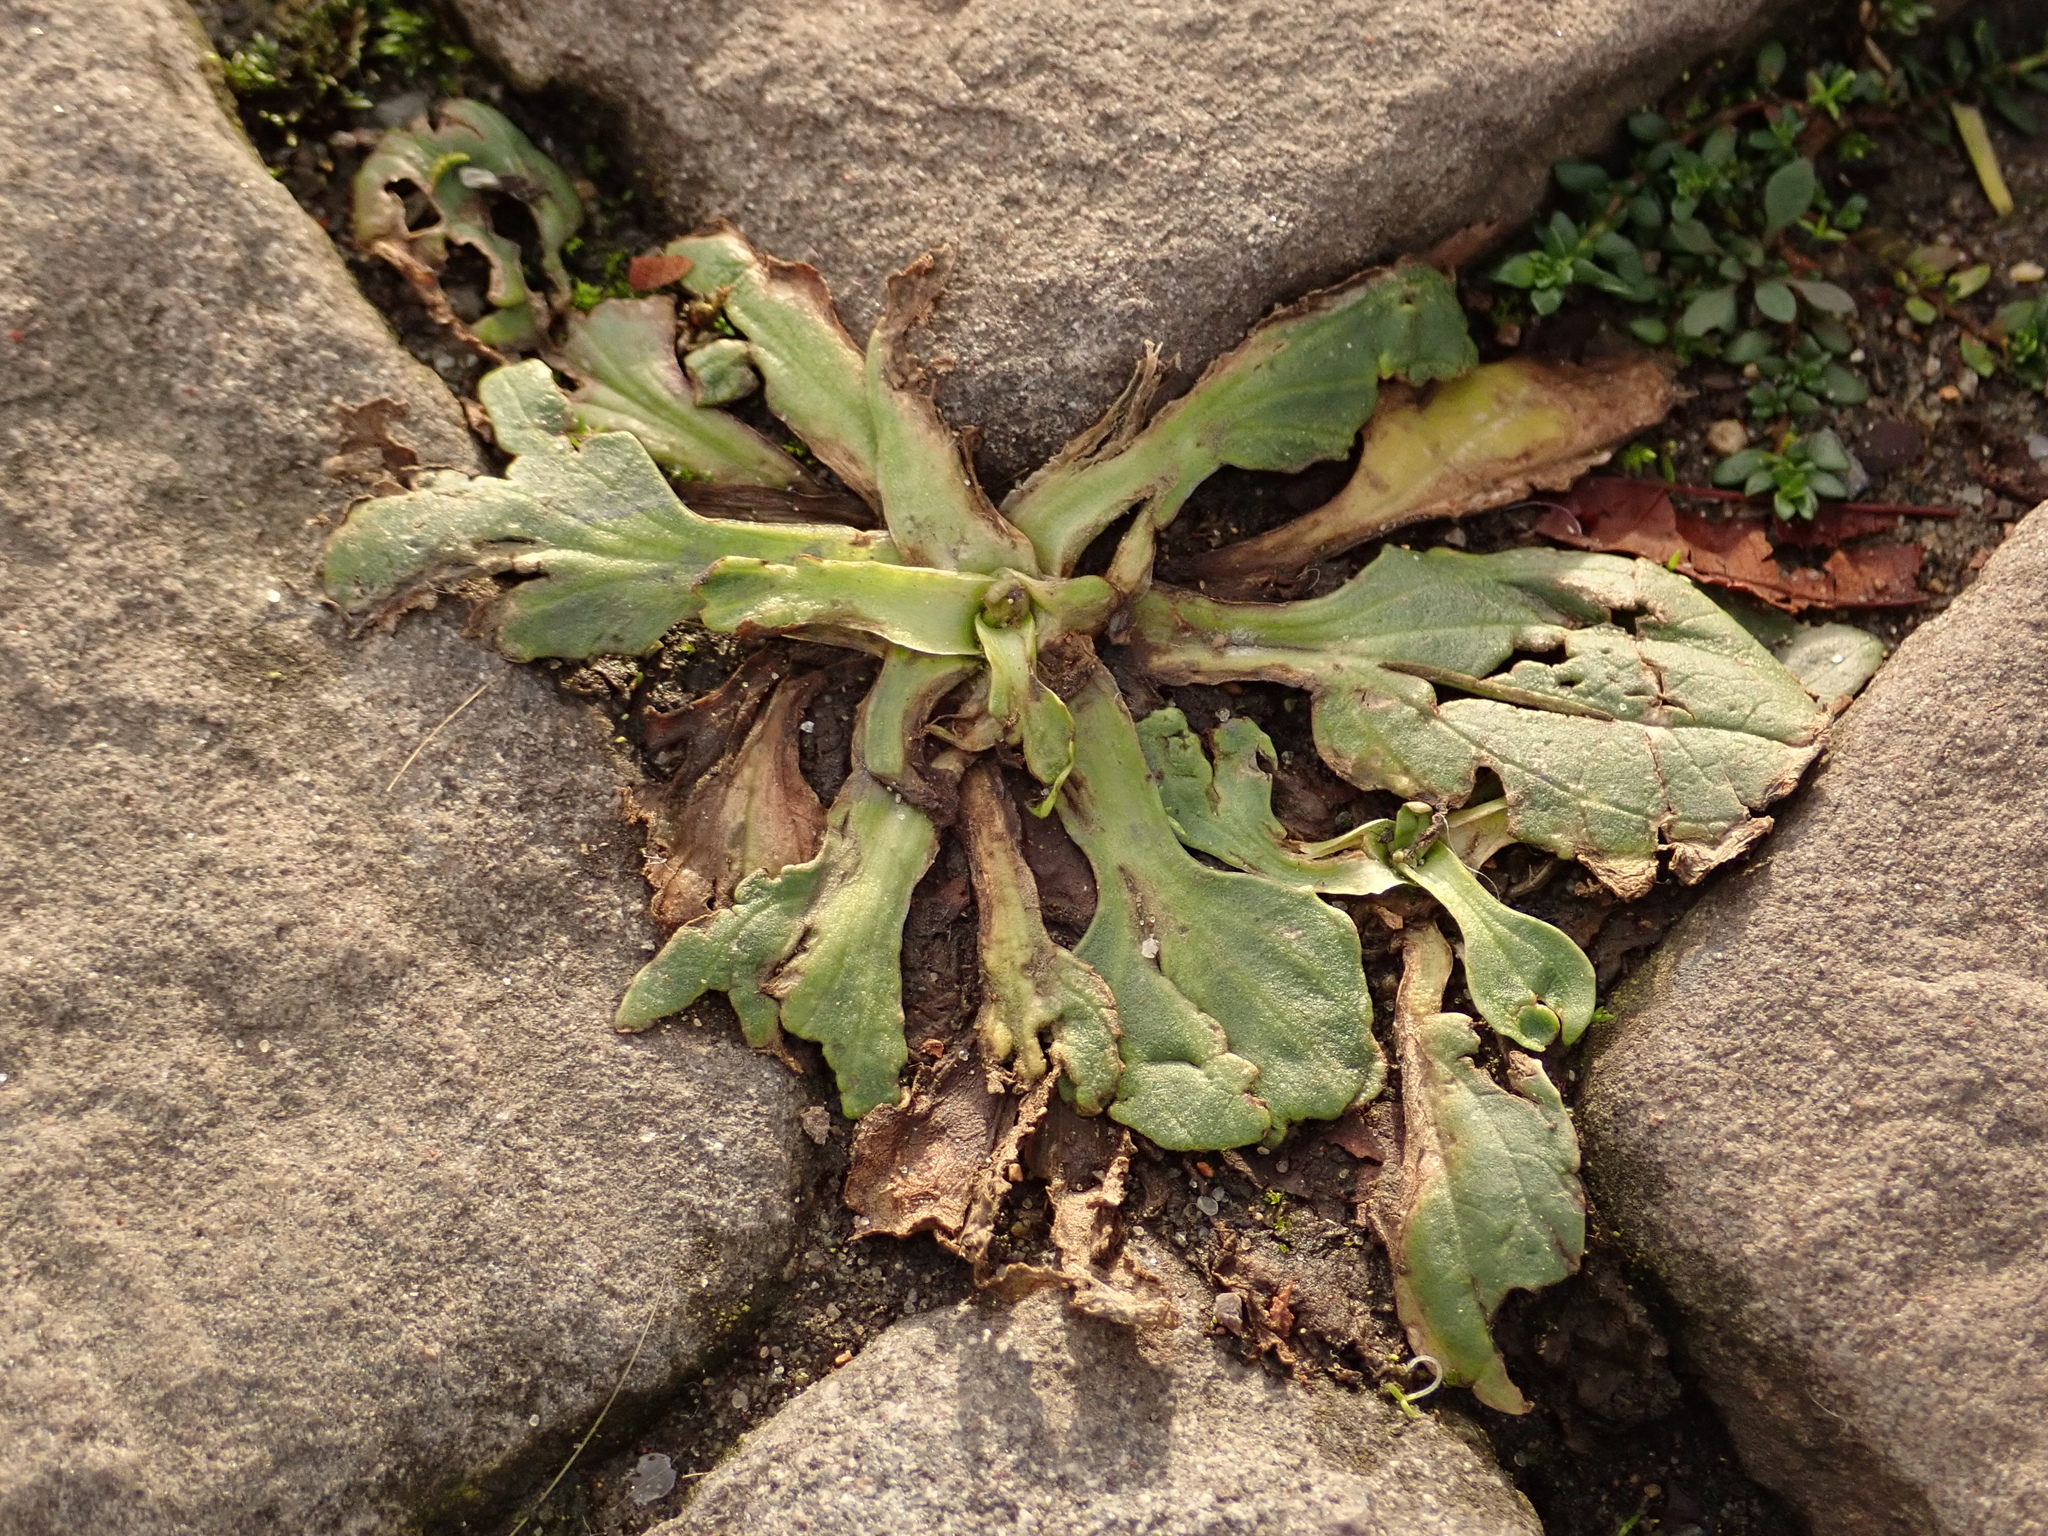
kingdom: Plantae
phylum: Tracheophyta
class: Magnoliopsida
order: Lamiales
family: Plantaginaceae
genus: Plantago
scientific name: Plantago major
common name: Common plantain
